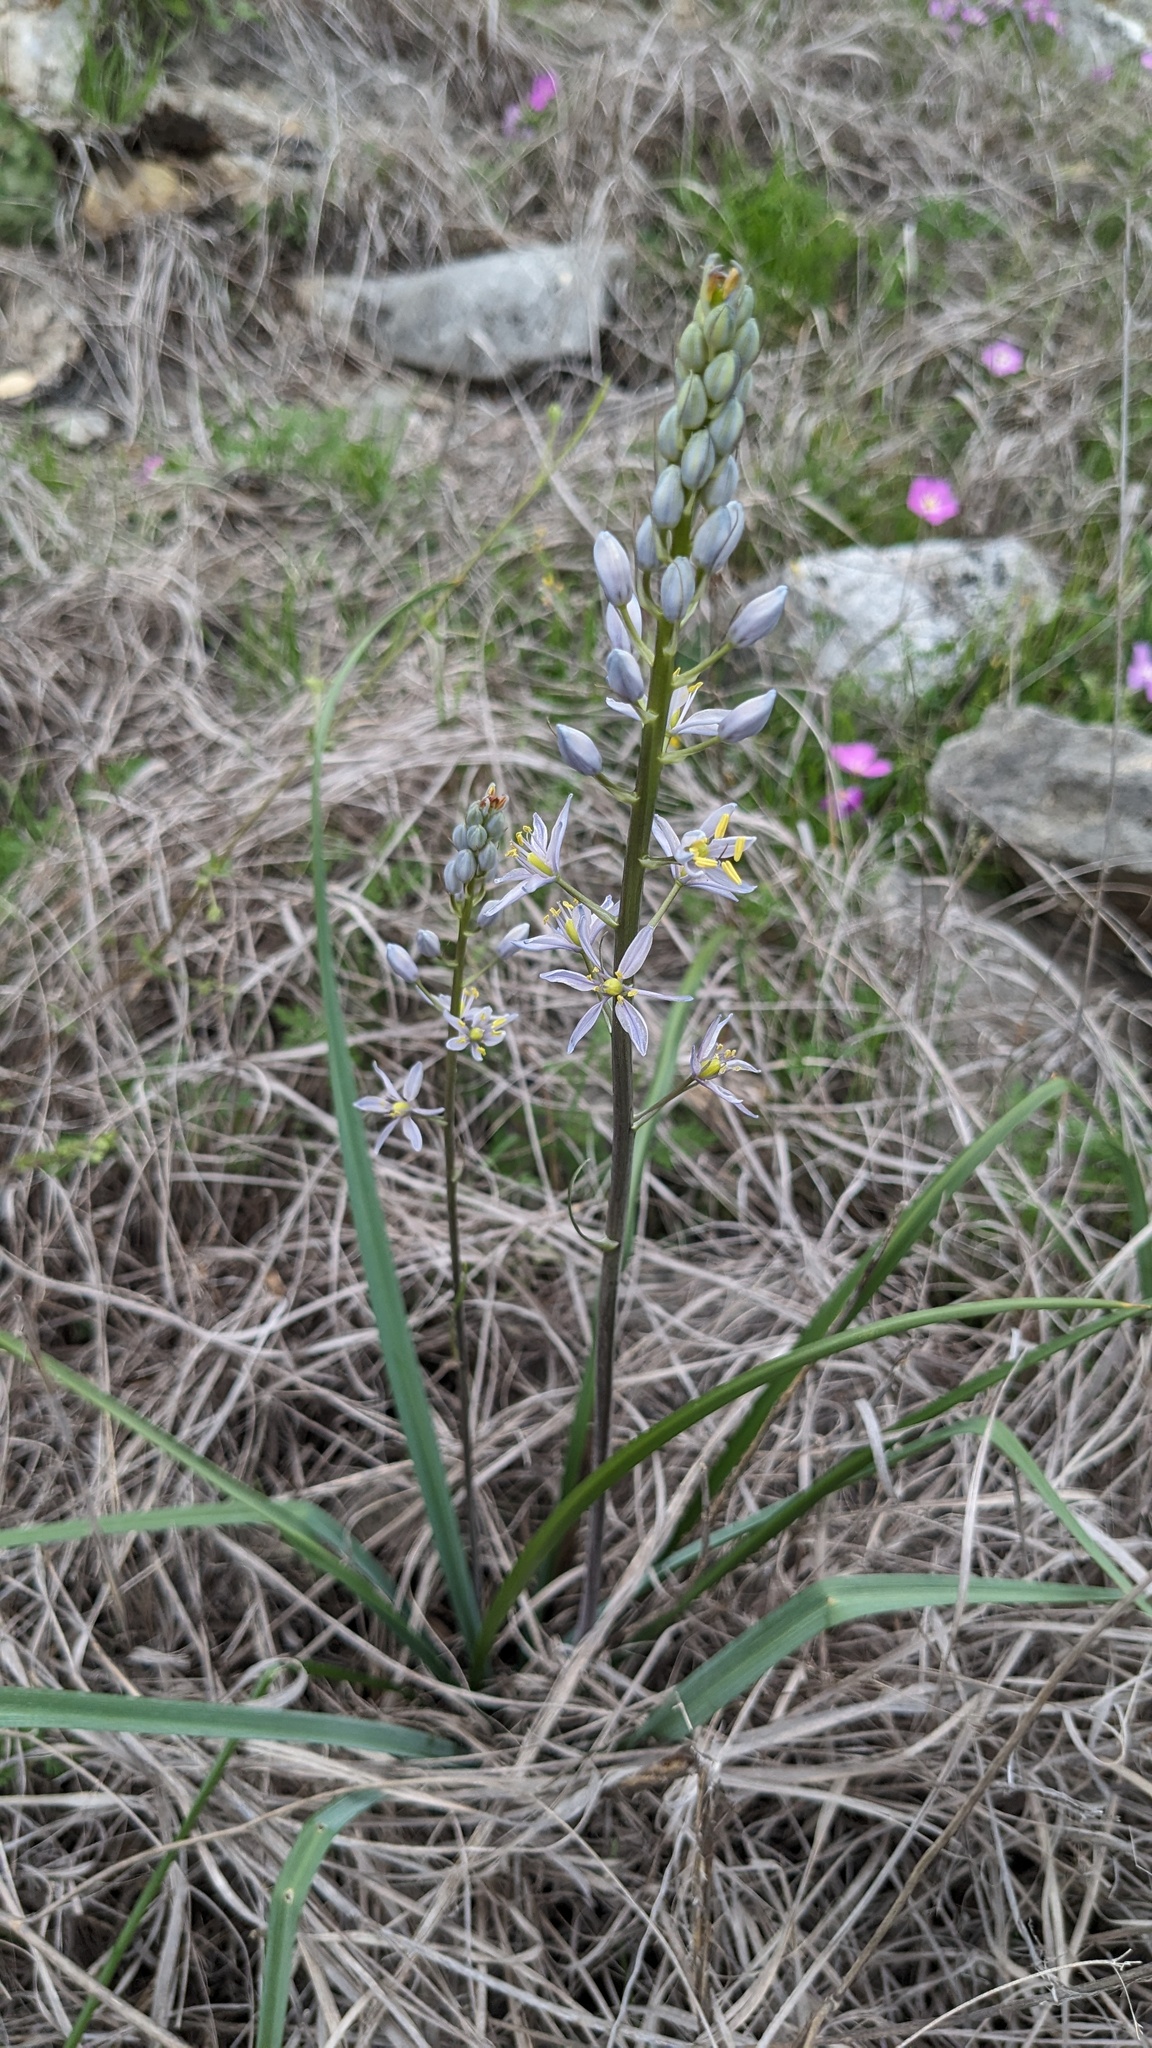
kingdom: Plantae
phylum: Tracheophyta
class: Liliopsida
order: Asparagales
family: Asparagaceae
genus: Camassia
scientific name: Camassia scilloides
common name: Wild hyacinth
